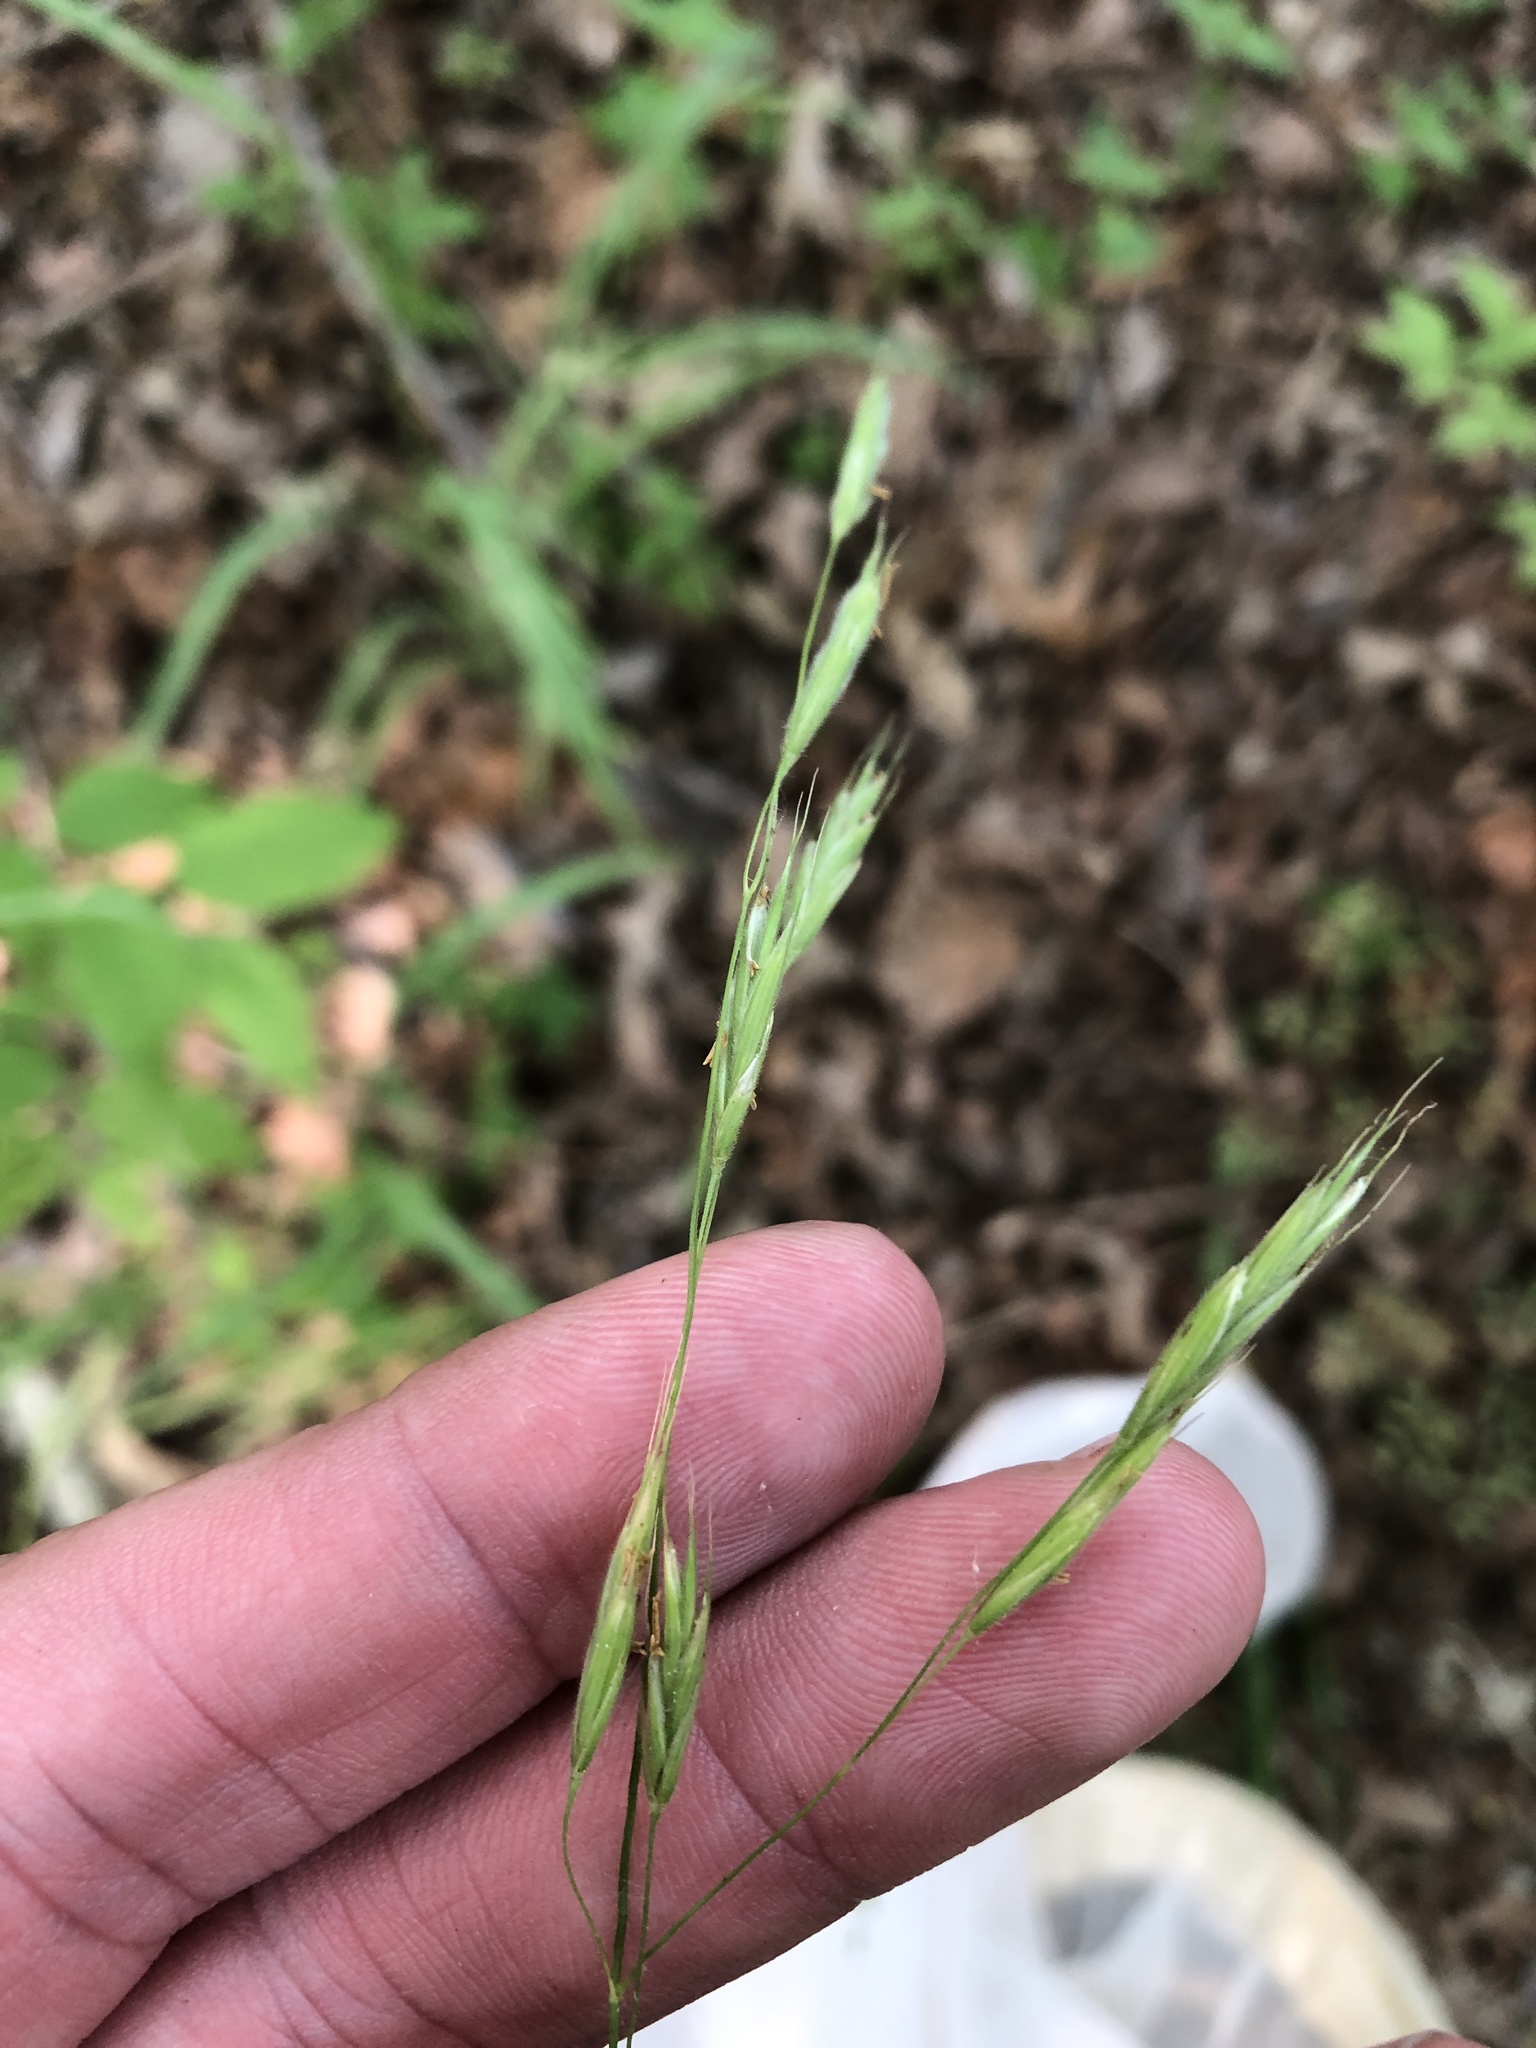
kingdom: Plantae
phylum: Tracheophyta
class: Liliopsida
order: Poales
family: Poaceae
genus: Bromus
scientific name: Bromus pubescens
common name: Hairy wood brome grass
